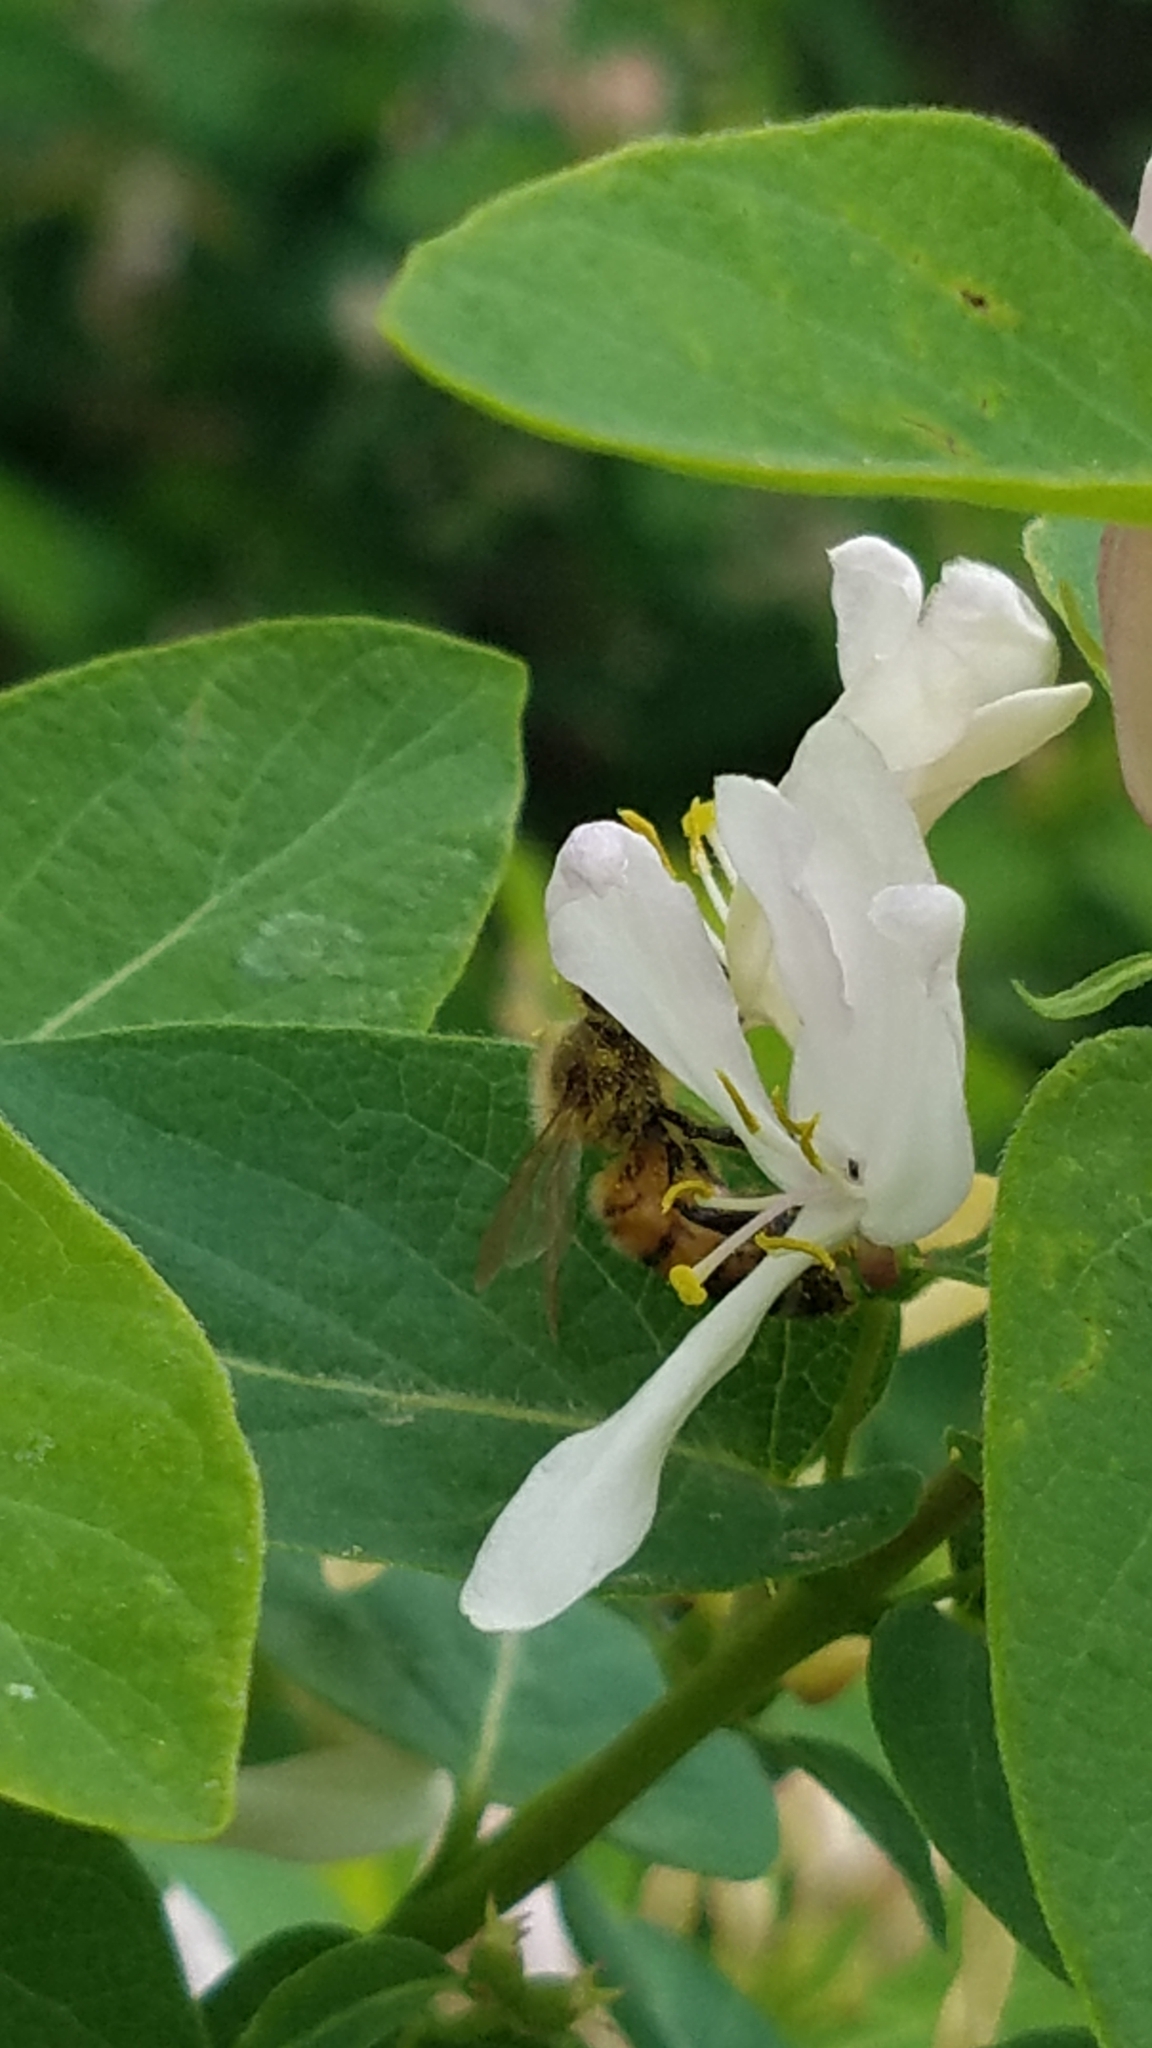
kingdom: Animalia
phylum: Arthropoda
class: Insecta
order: Hymenoptera
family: Apidae
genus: Apis
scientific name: Apis mellifera
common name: Honey bee
